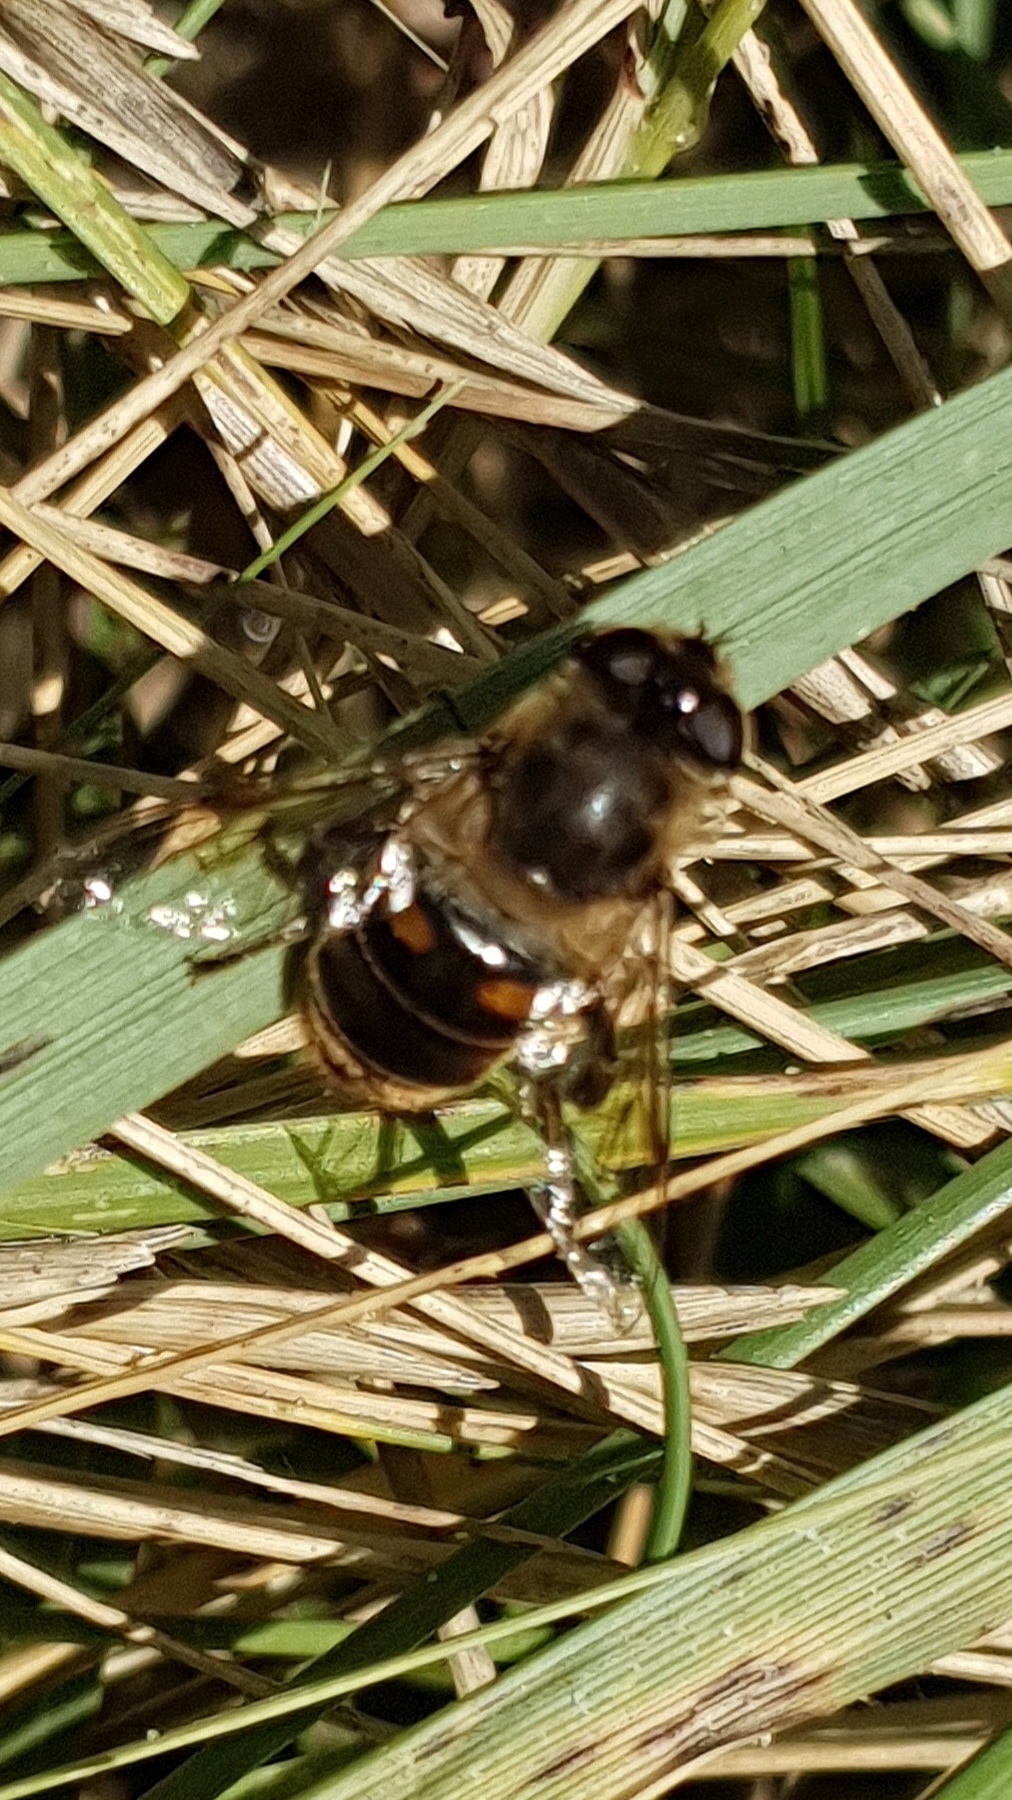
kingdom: Animalia
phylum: Arthropoda
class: Insecta
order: Diptera
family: Syrphidae
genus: Eristalis
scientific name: Eristalis tenax
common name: Drone fly
